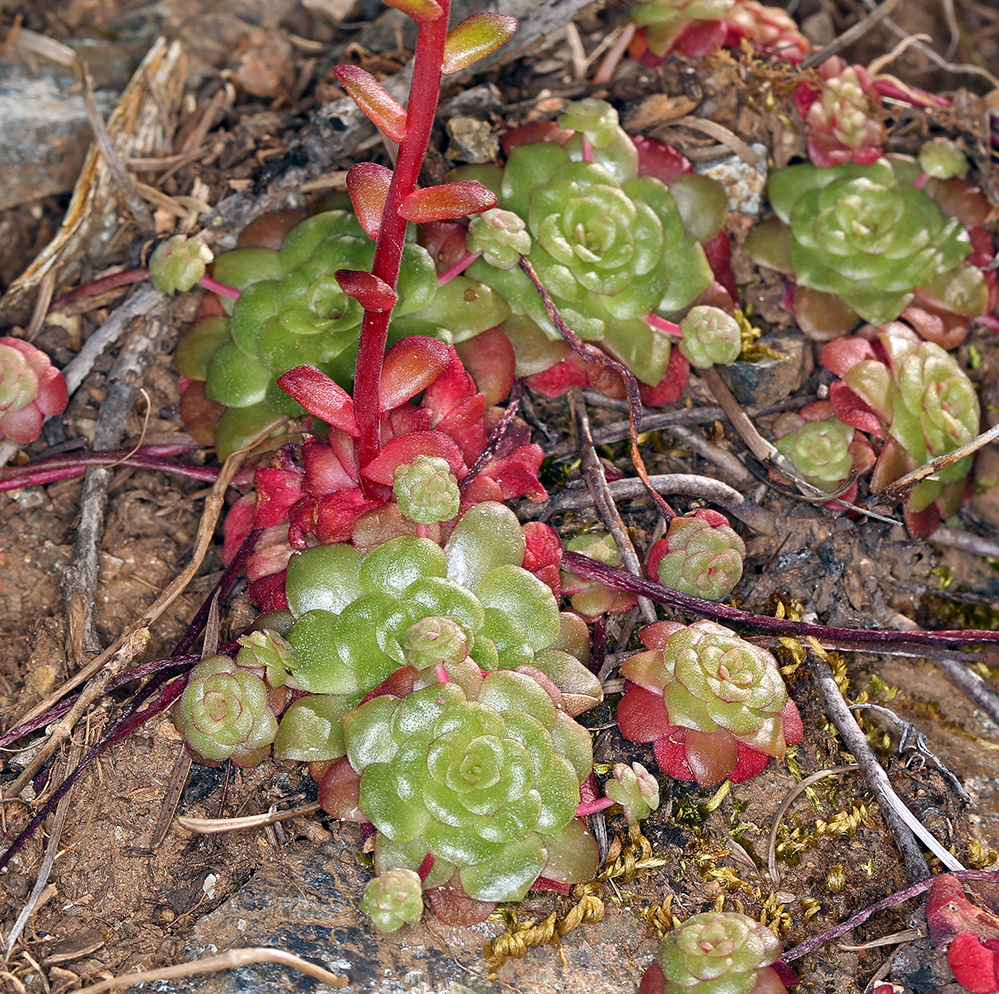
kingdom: Plantae
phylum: Tracheophyta
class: Magnoliopsida
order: Saxifragales
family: Crassulaceae
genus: Sedum
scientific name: Sedum spathulifolium
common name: Colorado stonecrop
